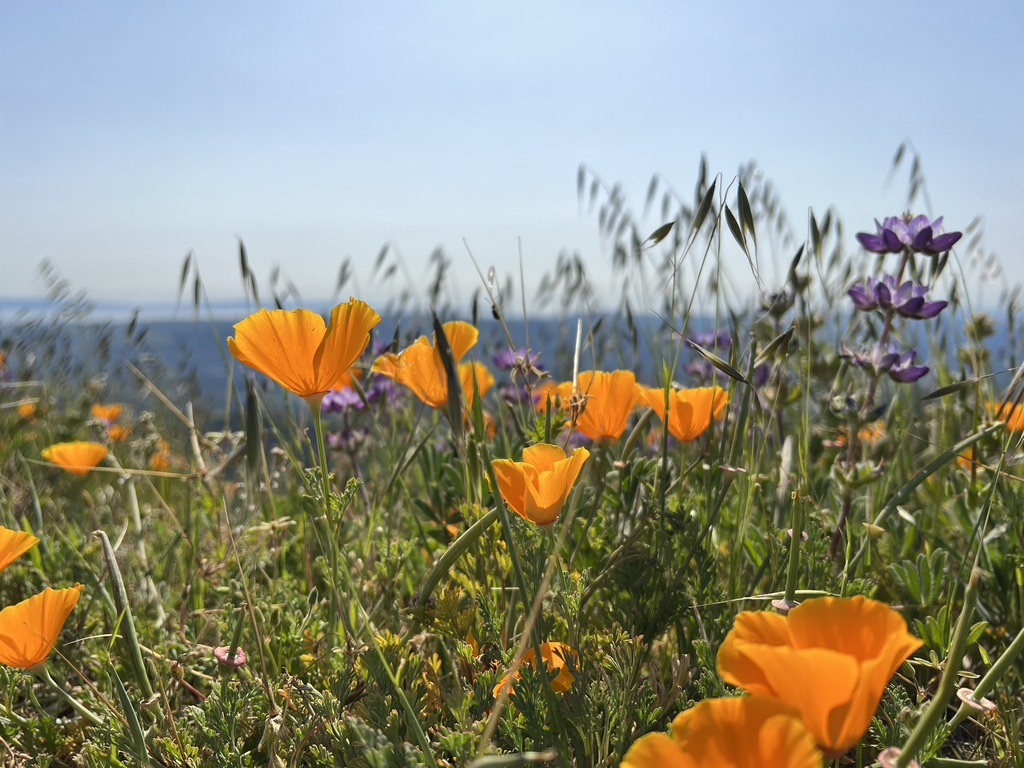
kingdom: Plantae
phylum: Tracheophyta
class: Magnoliopsida
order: Ranunculales
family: Papaveraceae
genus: Eschscholzia
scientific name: Eschscholzia californica
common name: California poppy
